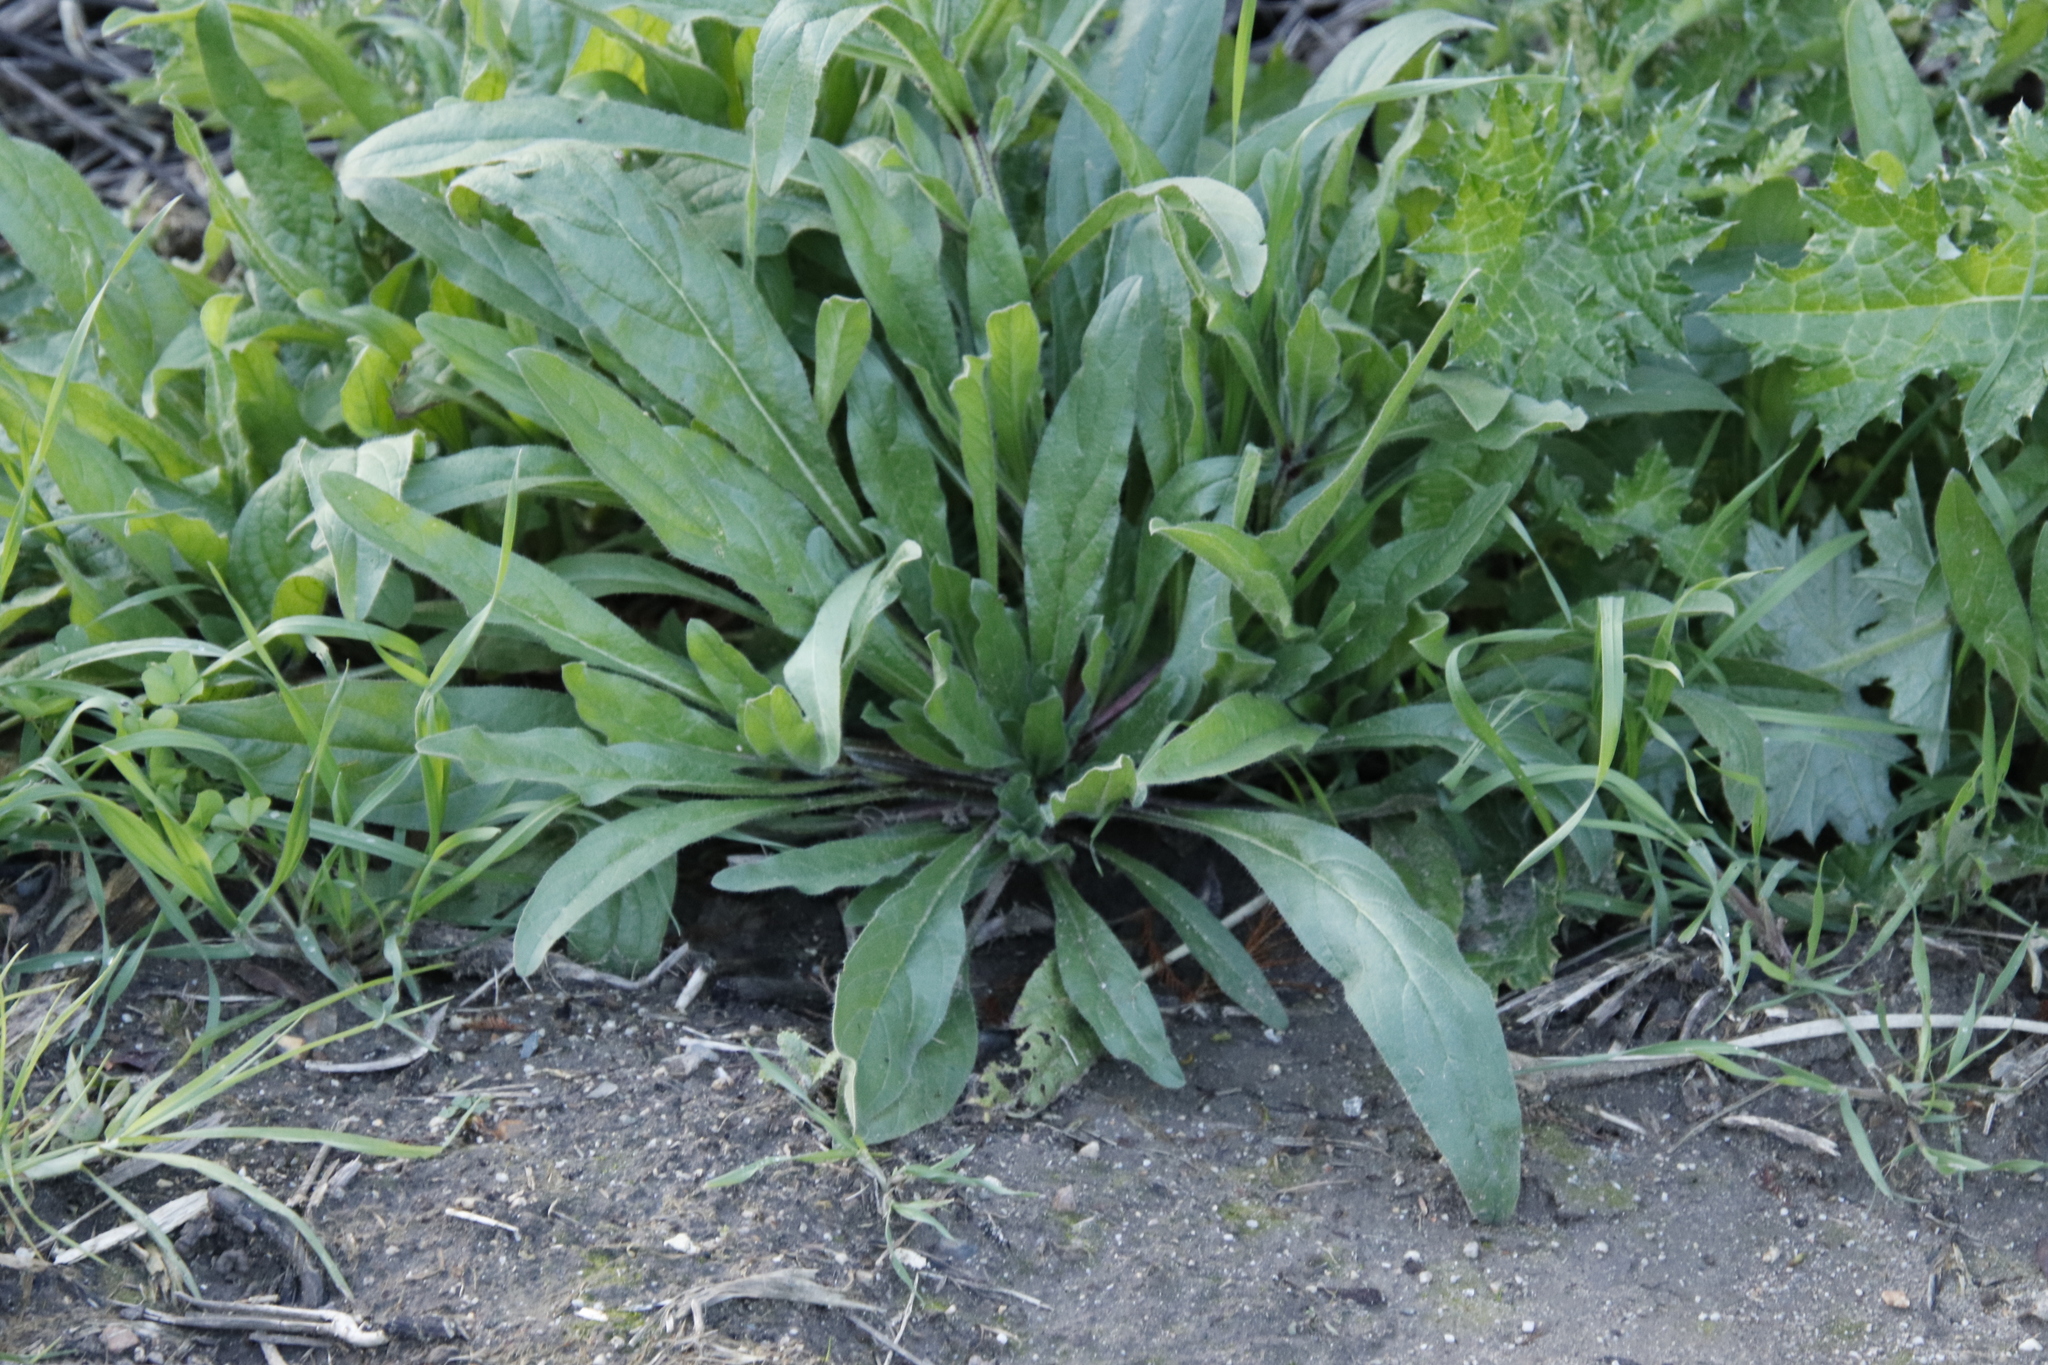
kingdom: Plantae
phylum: Tracheophyta
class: Magnoliopsida
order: Lamiales
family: Plantaginaceae
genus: Plantago
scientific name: Plantago lanceolata
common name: Ribwort plantain
